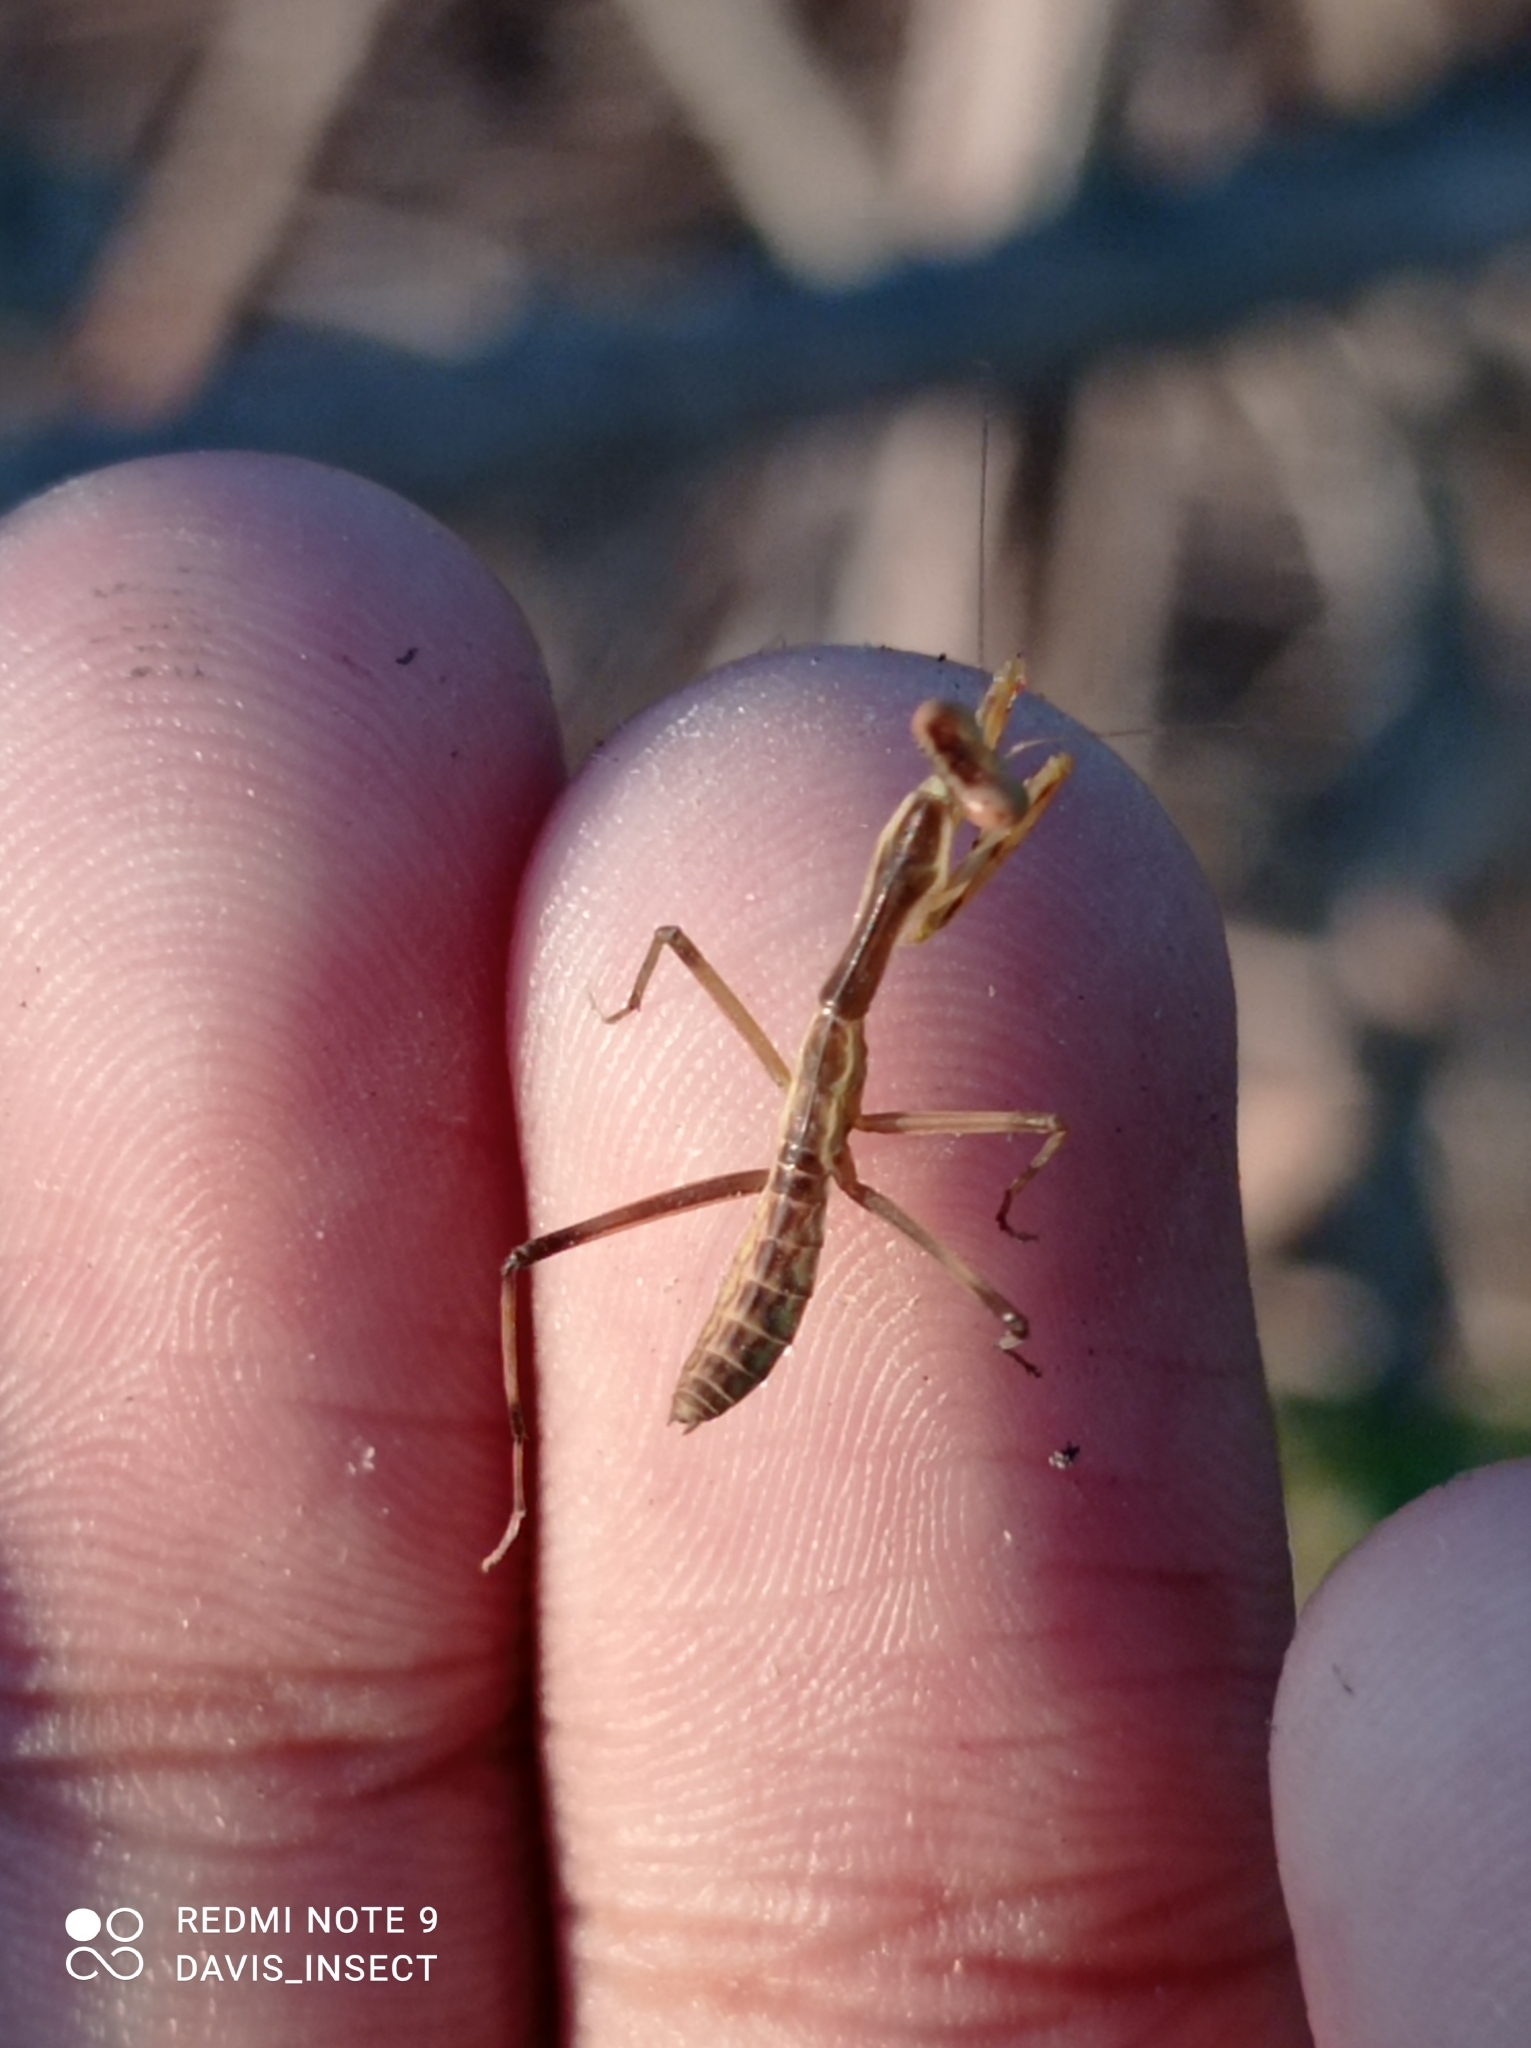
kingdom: Animalia
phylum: Arthropoda
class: Insecta
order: Mantodea
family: Mantidae
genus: Hierodula
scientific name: Hierodula timorensis
